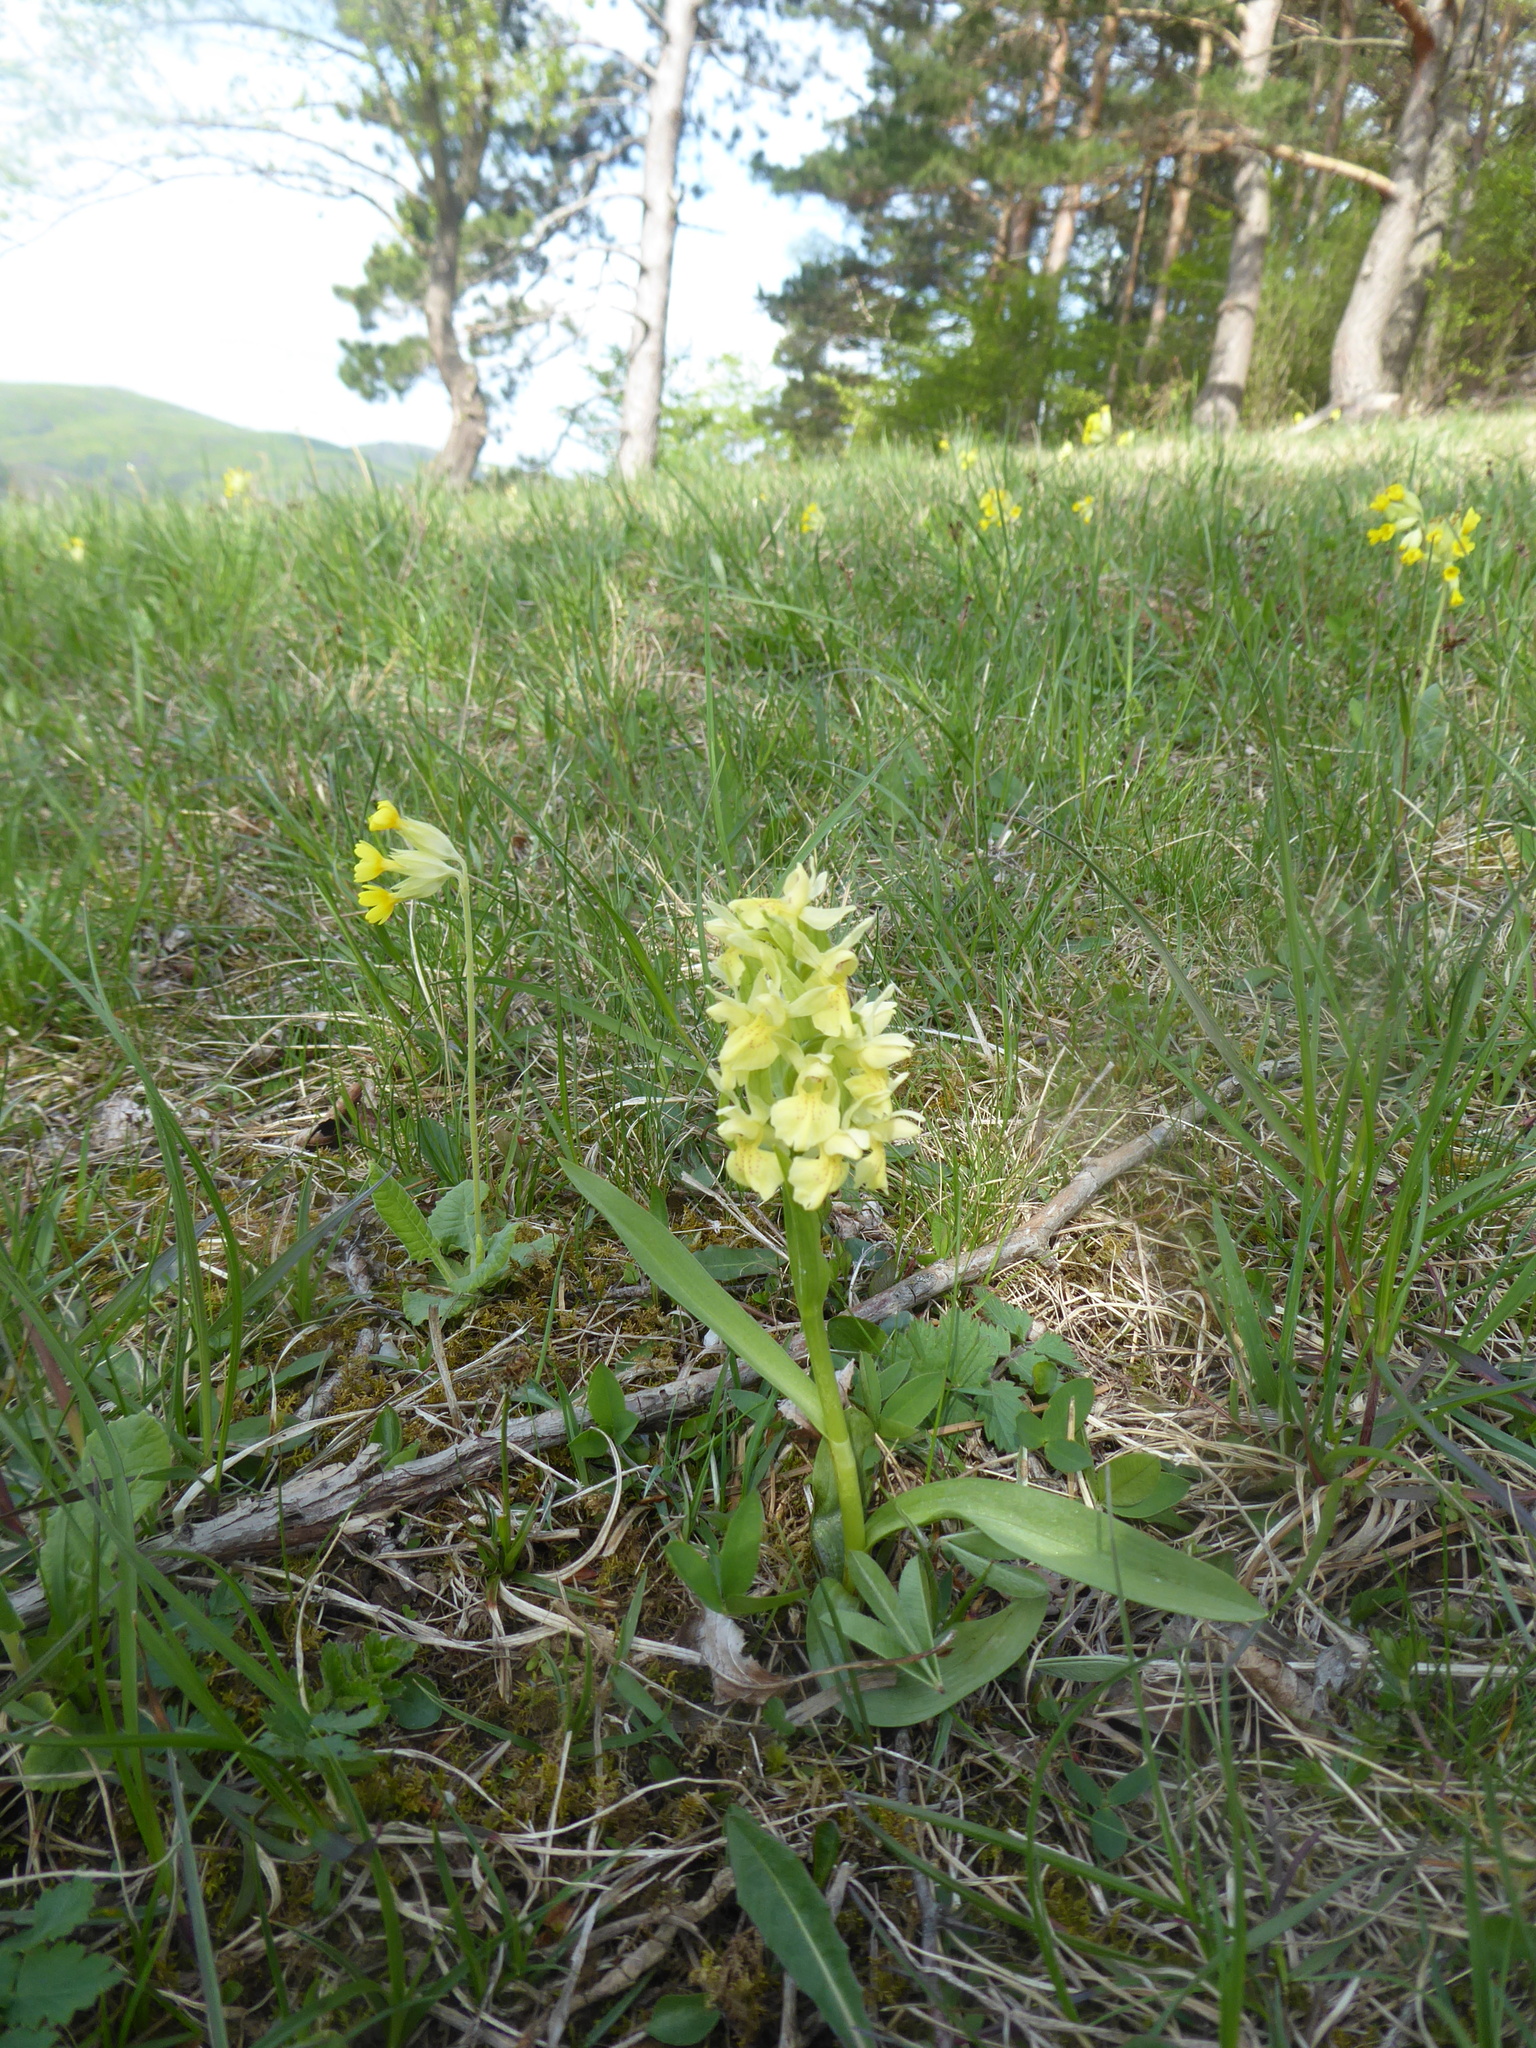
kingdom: Plantae
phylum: Tracheophyta
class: Liliopsida
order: Asparagales
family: Orchidaceae
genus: Dactylorhiza
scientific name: Dactylorhiza sambucina
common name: Elder-flowered orchid
